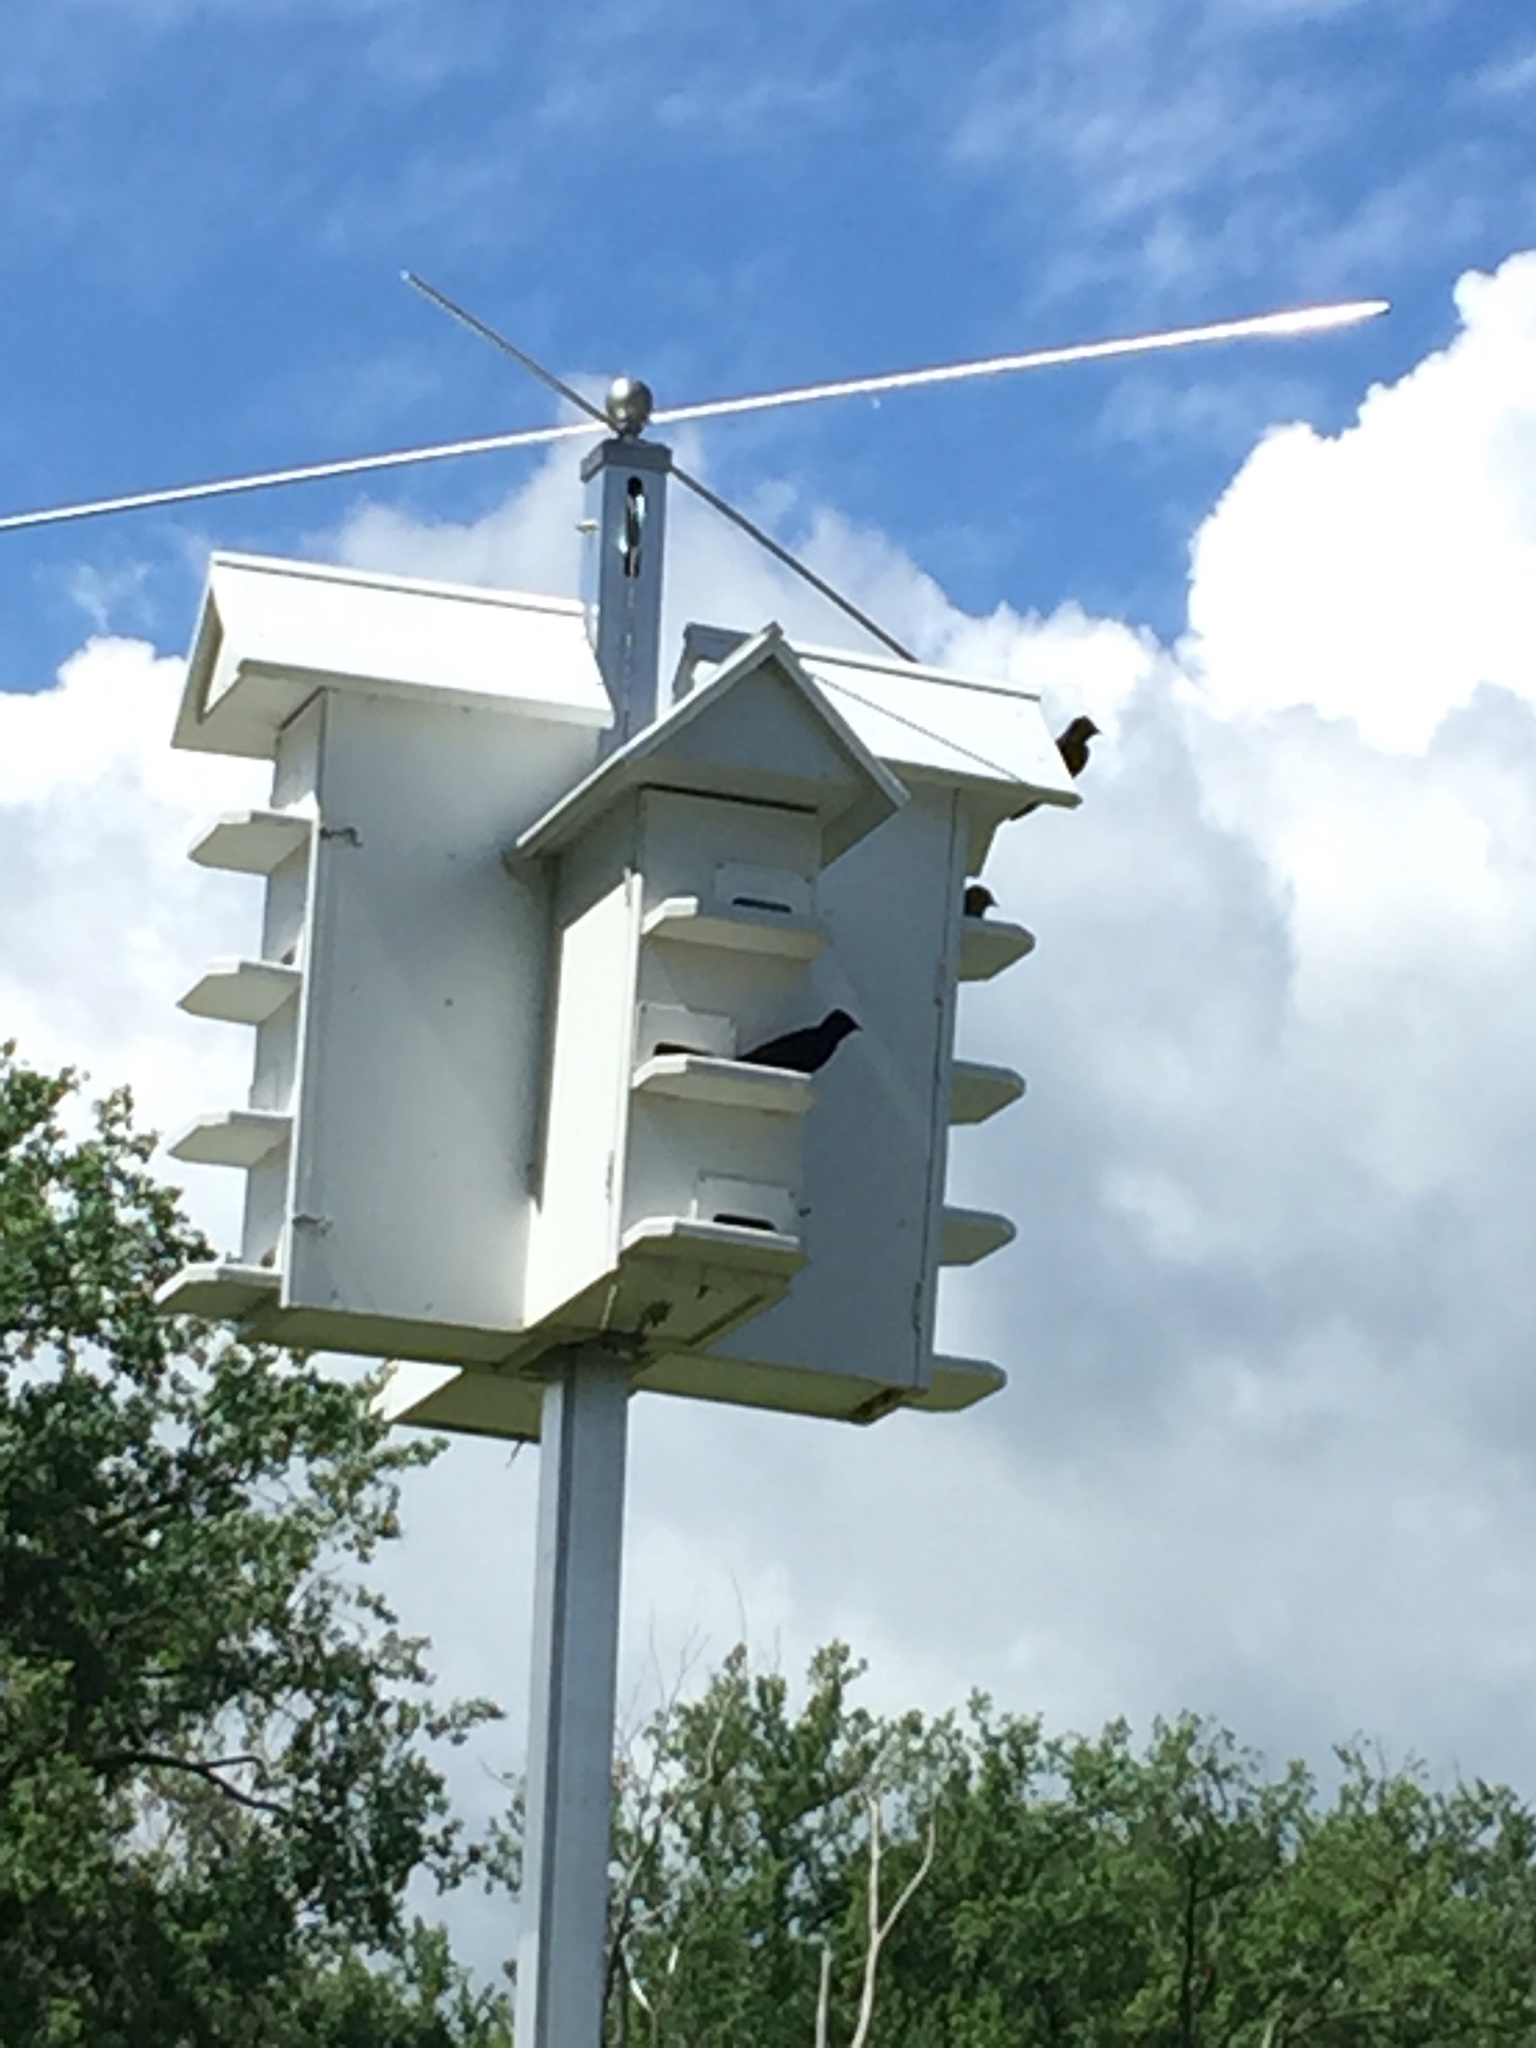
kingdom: Animalia
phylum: Chordata
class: Aves
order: Passeriformes
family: Hirundinidae
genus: Progne
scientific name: Progne subis
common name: Purple martin
